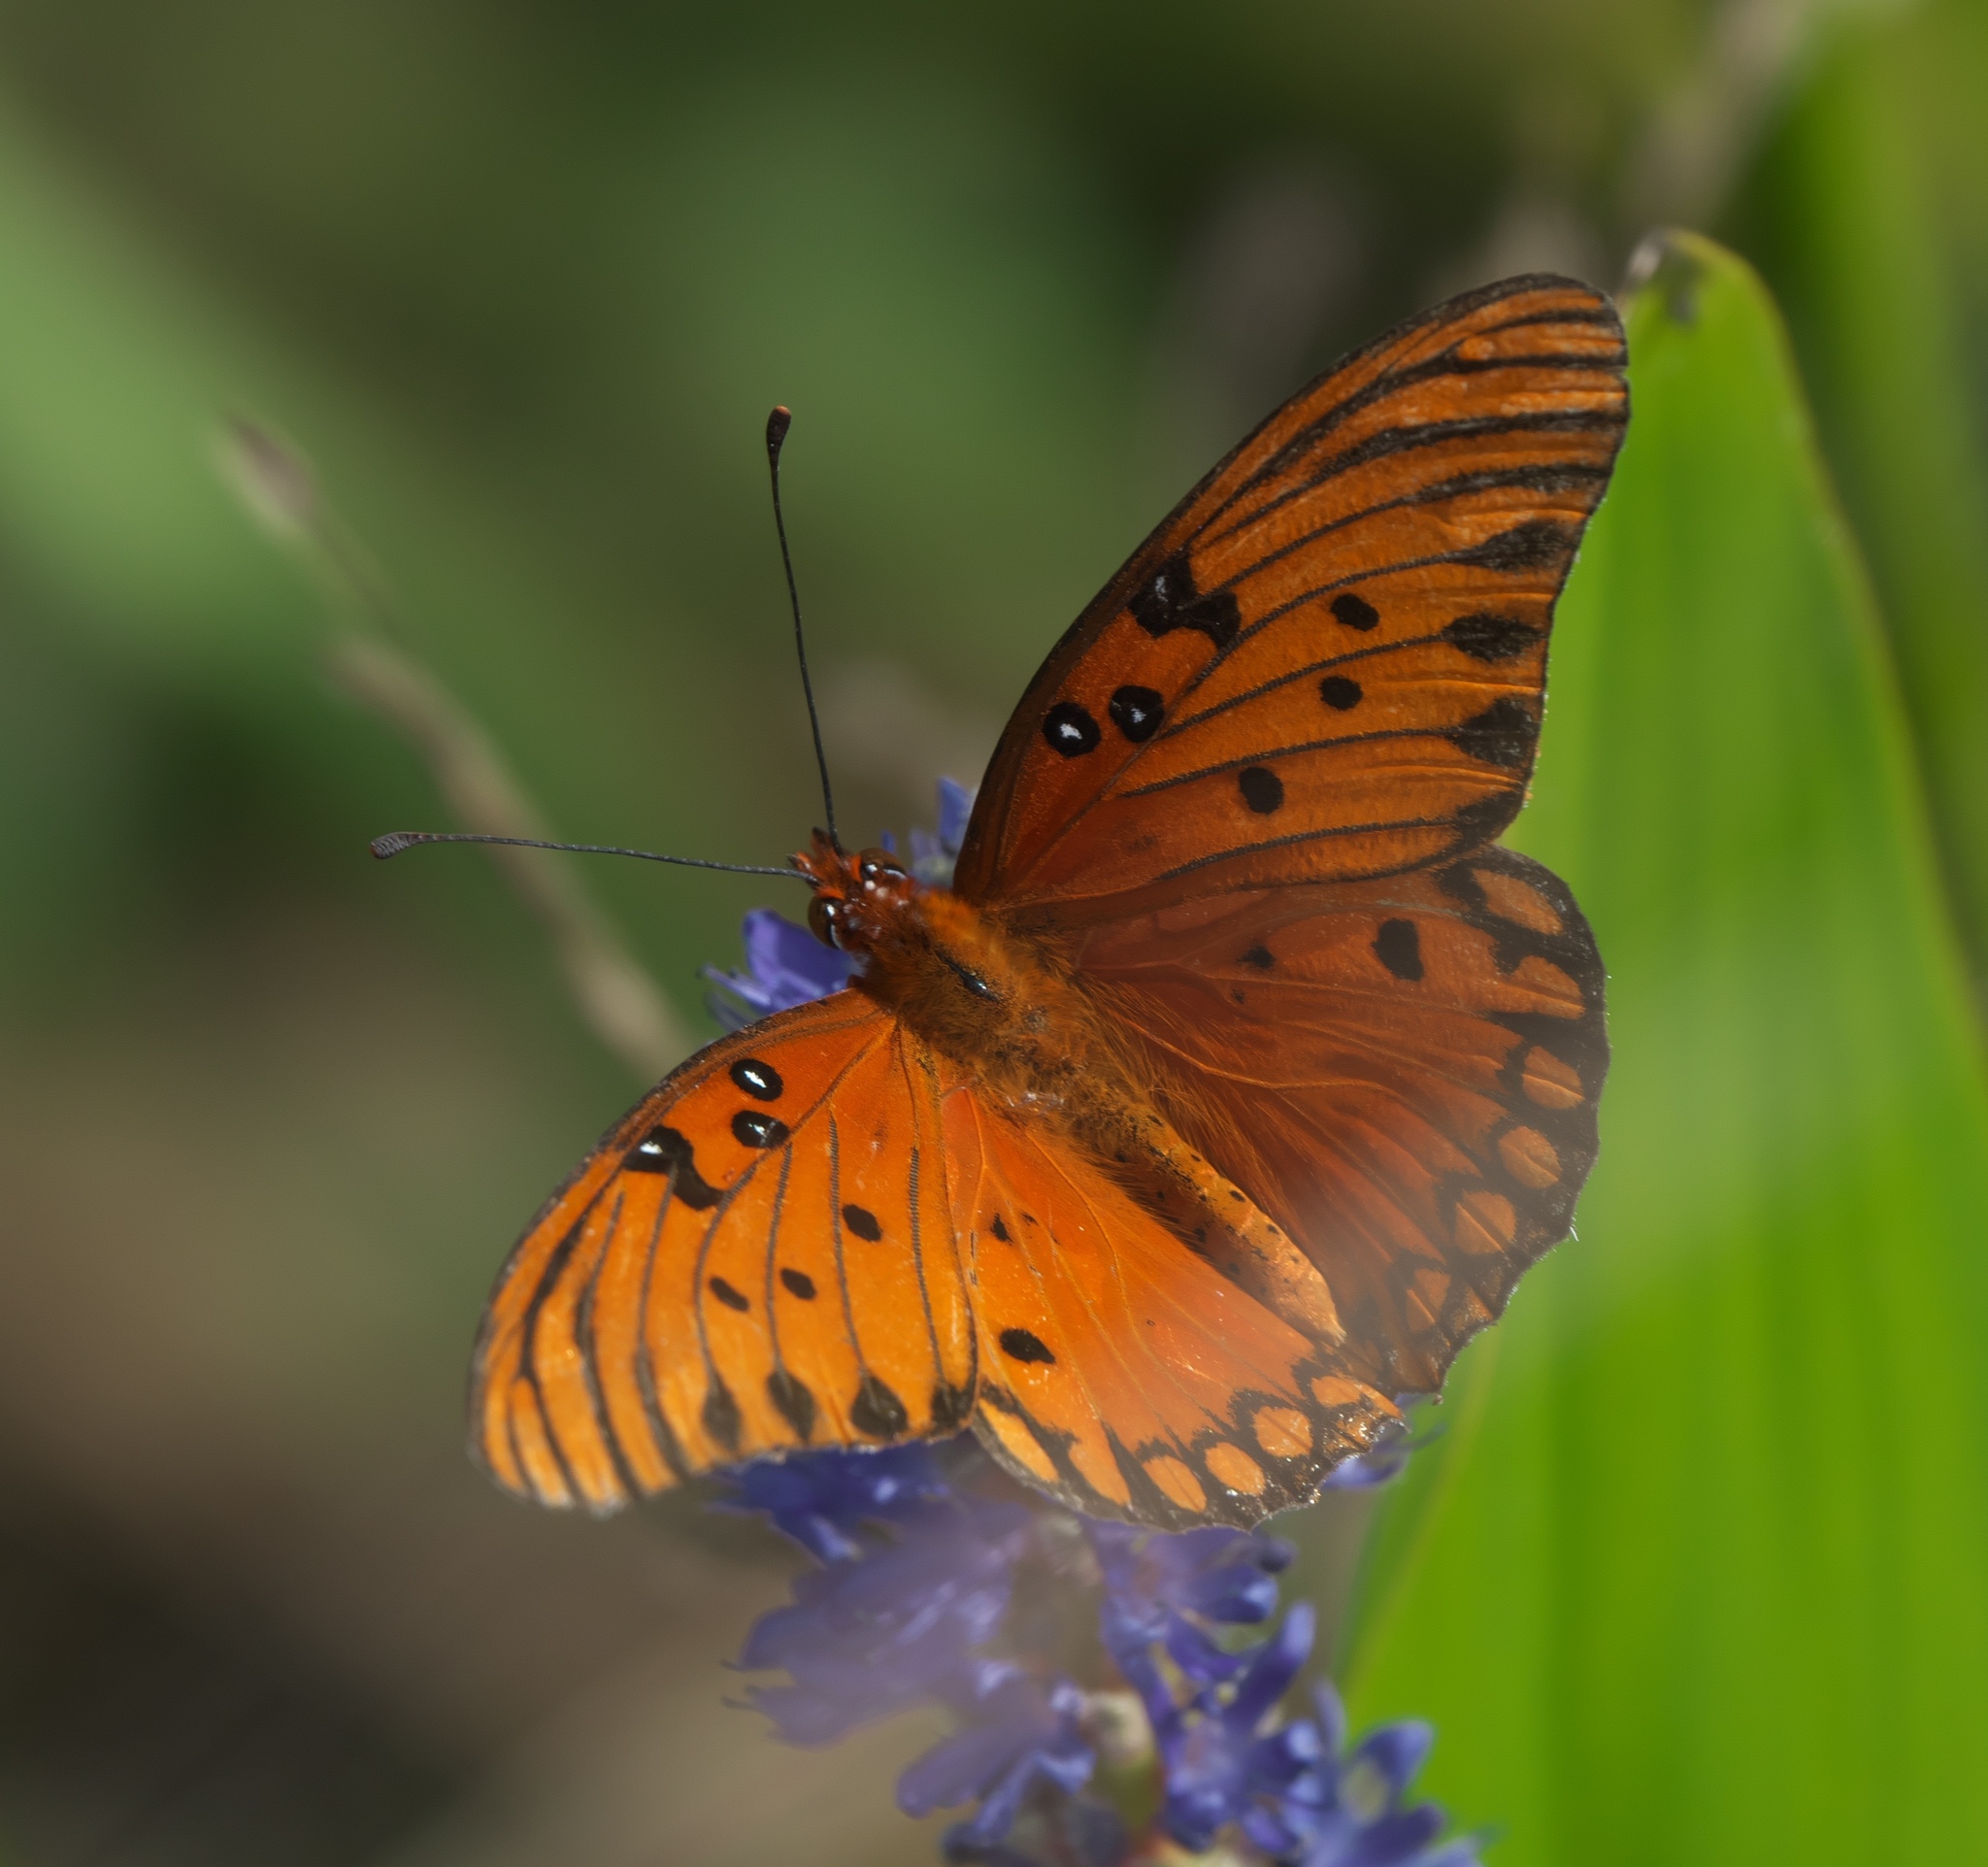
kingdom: Animalia
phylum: Arthropoda
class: Insecta
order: Lepidoptera
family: Nymphalidae
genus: Dione
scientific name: Dione vanillae
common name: Gulf fritillary
